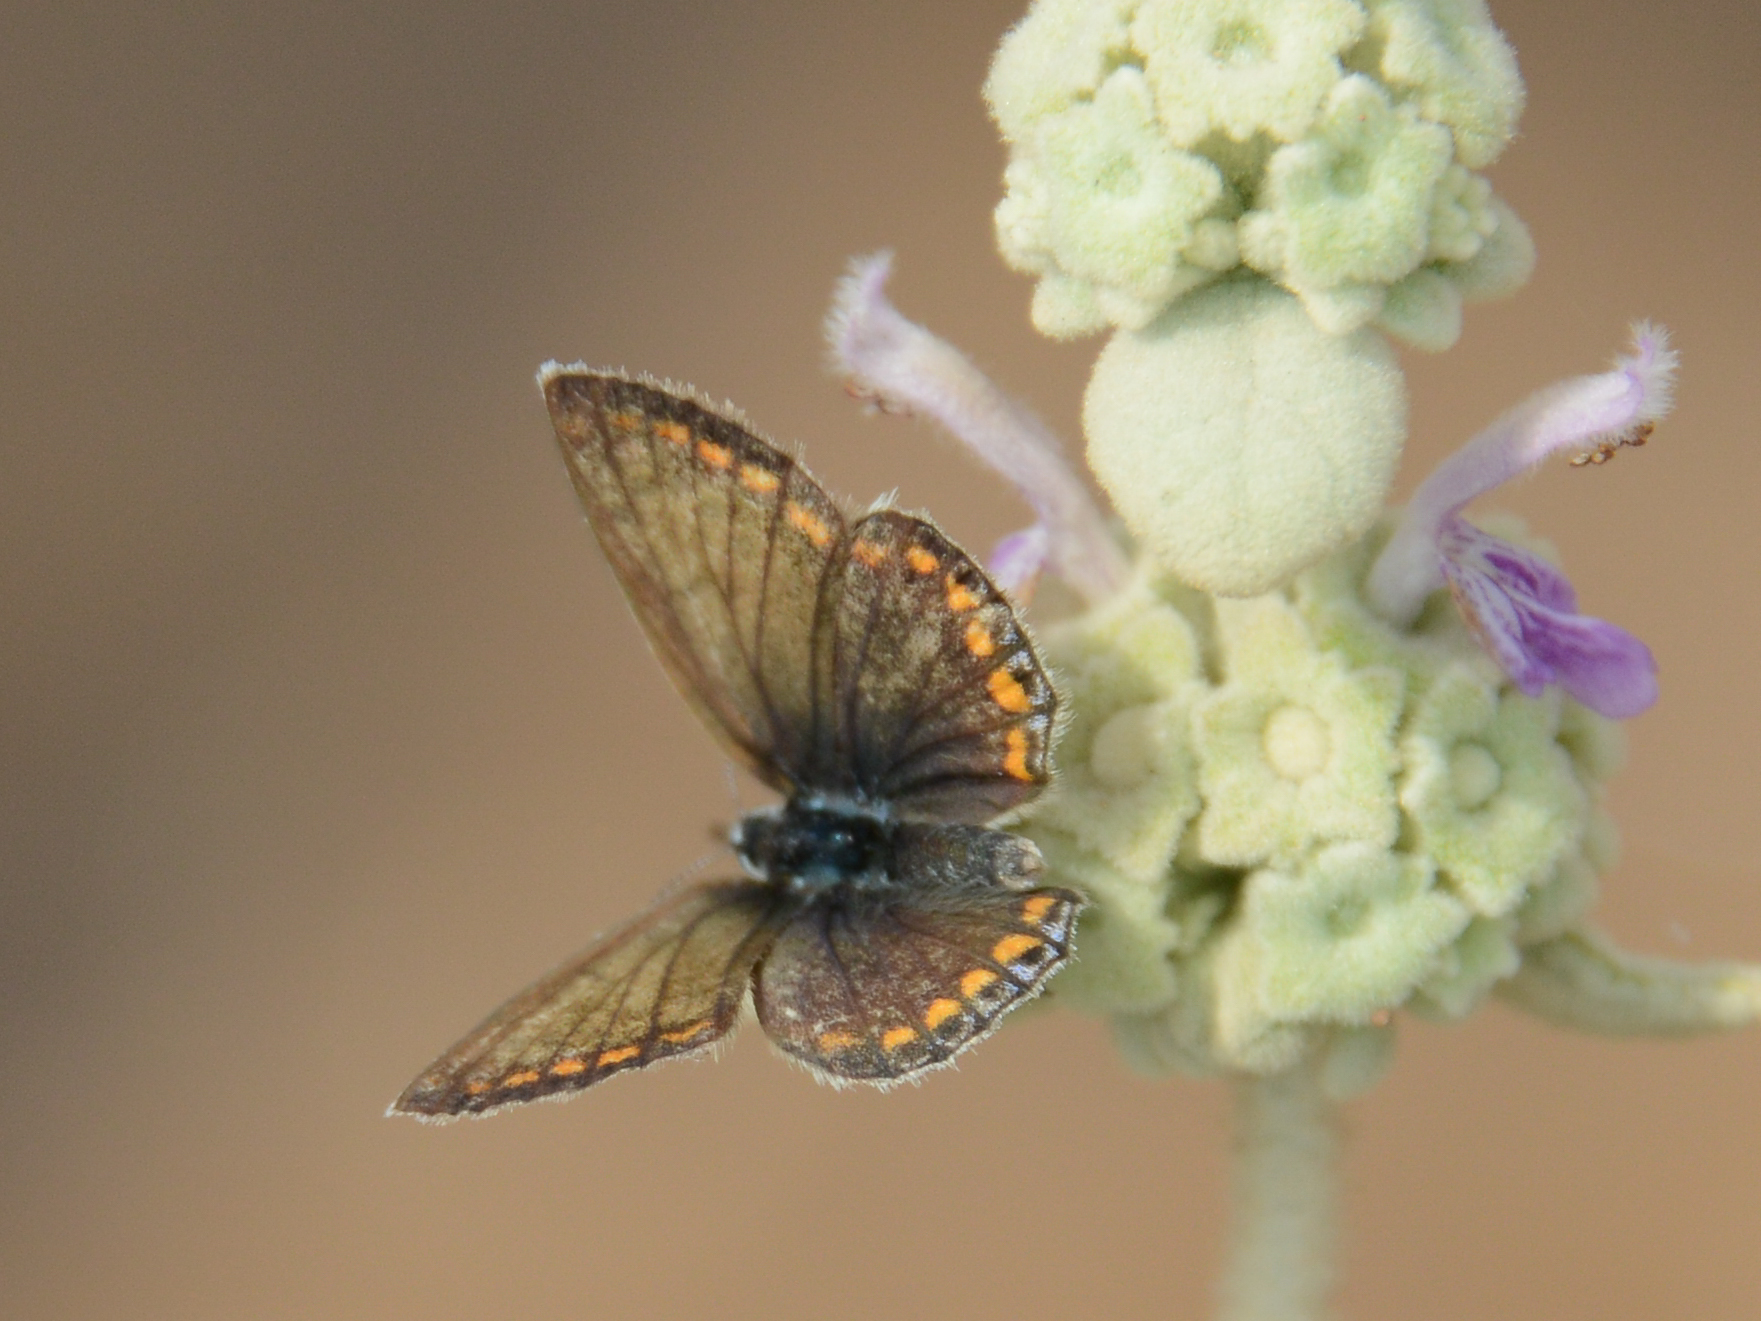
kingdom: Animalia
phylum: Arthropoda
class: Insecta
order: Lepidoptera
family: Lycaenidae
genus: Polyommatus
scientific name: Polyommatus icarus
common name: Common blue
